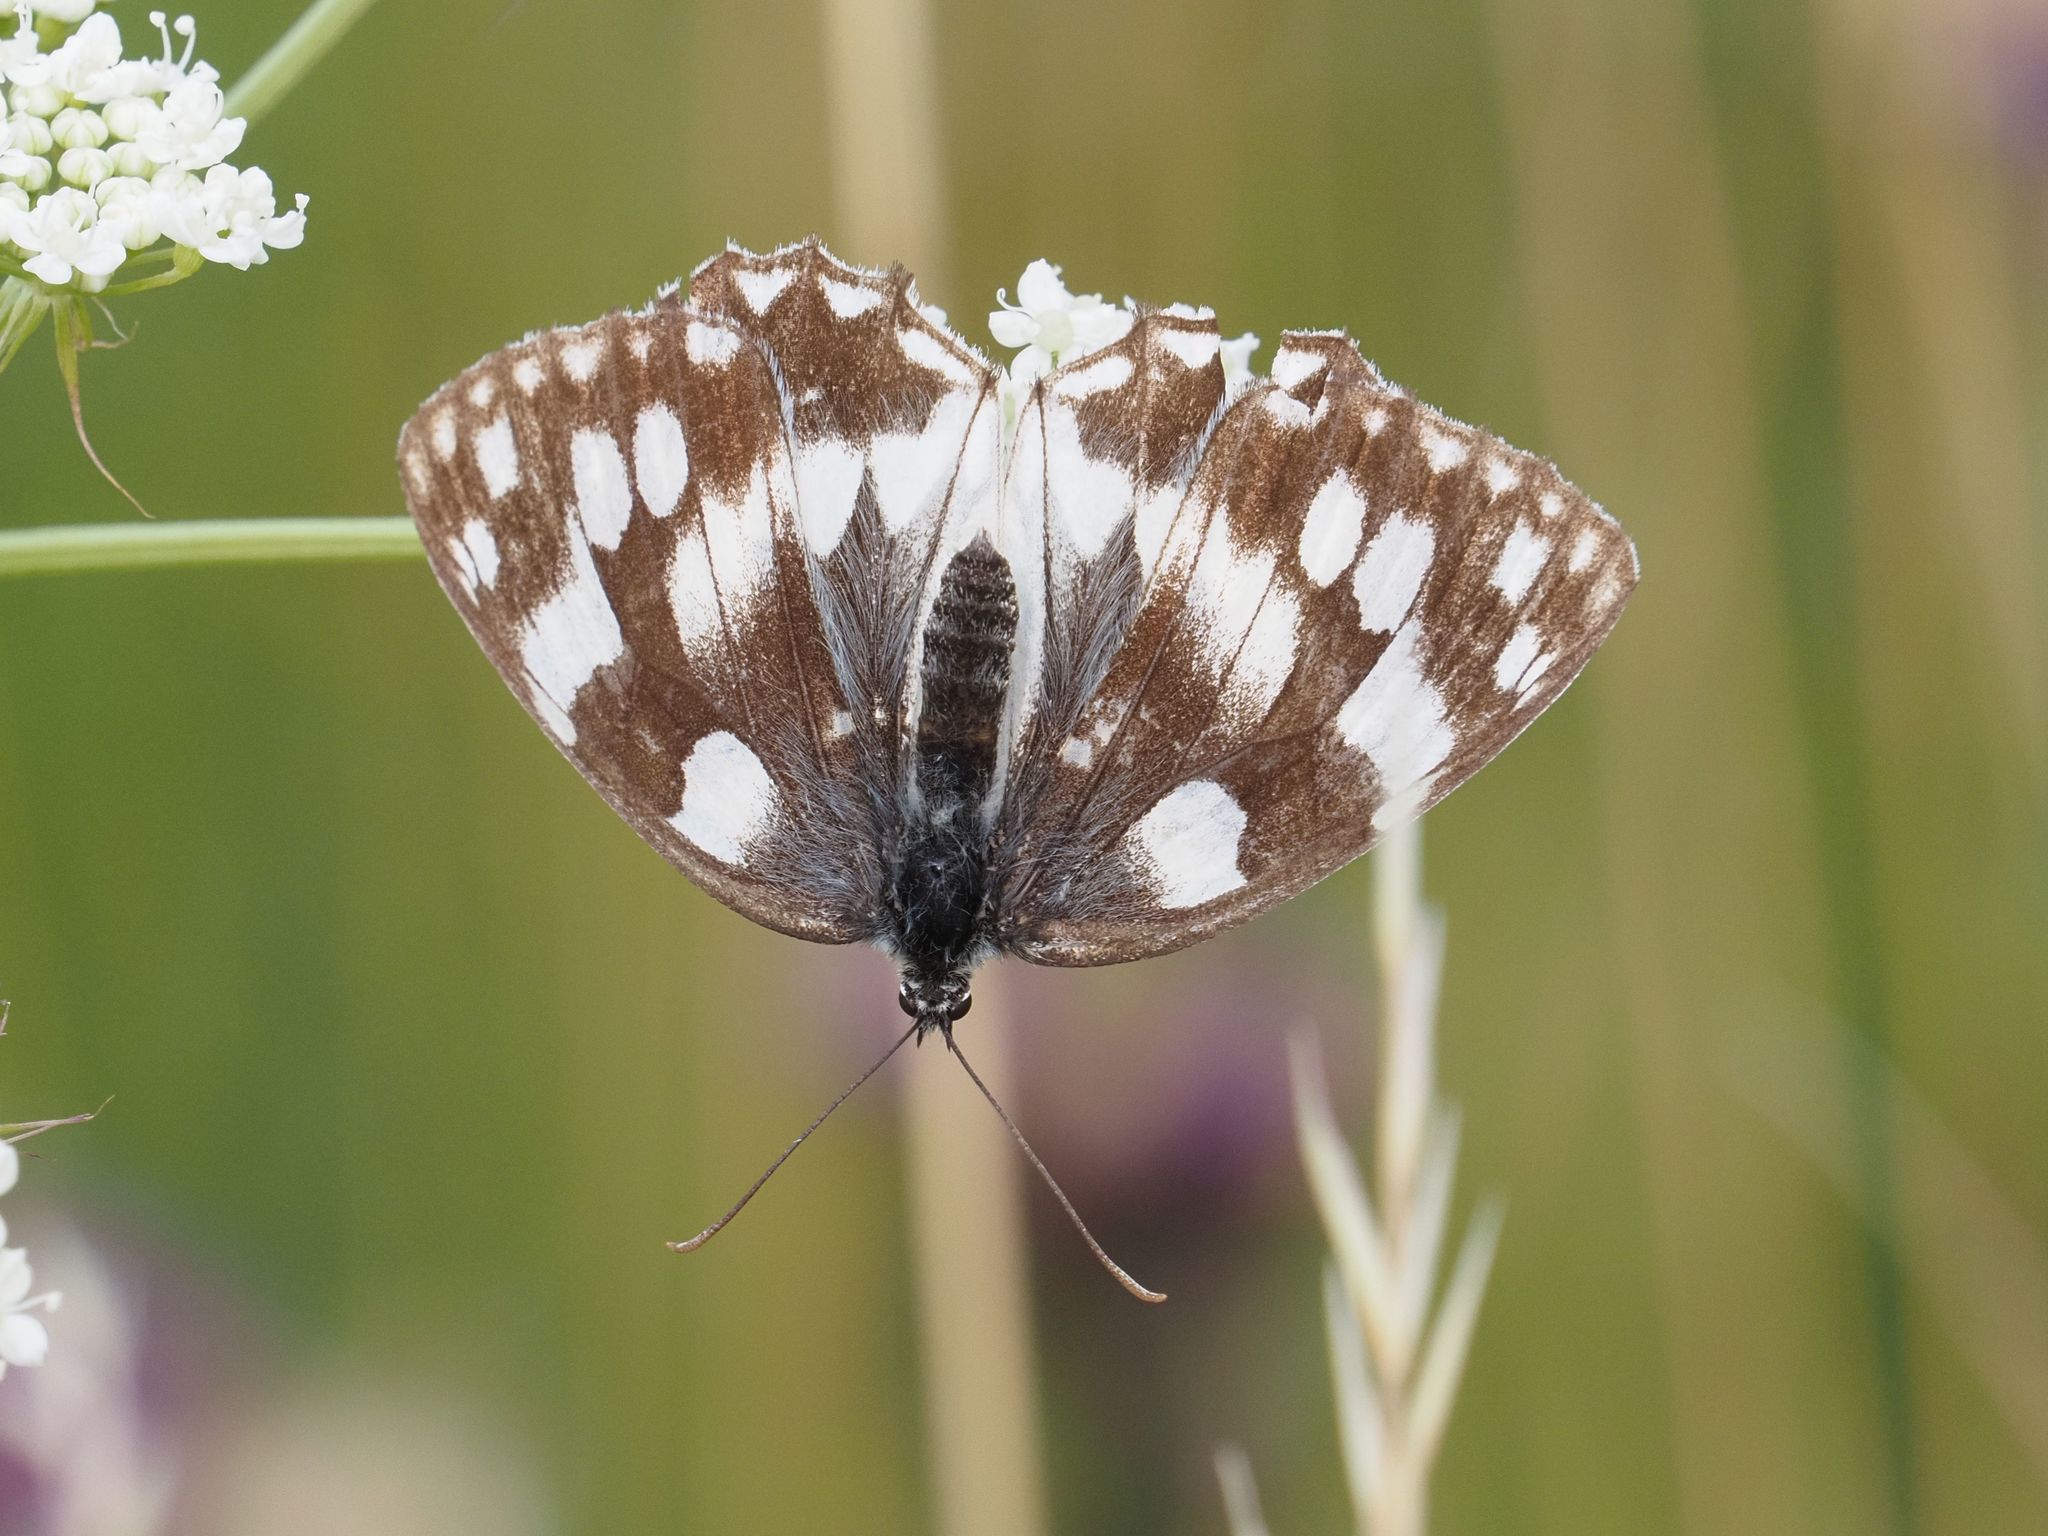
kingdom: Animalia
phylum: Arthropoda
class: Insecta
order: Lepidoptera
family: Nymphalidae
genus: Melanargia
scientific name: Melanargia galathea
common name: Marbled white
